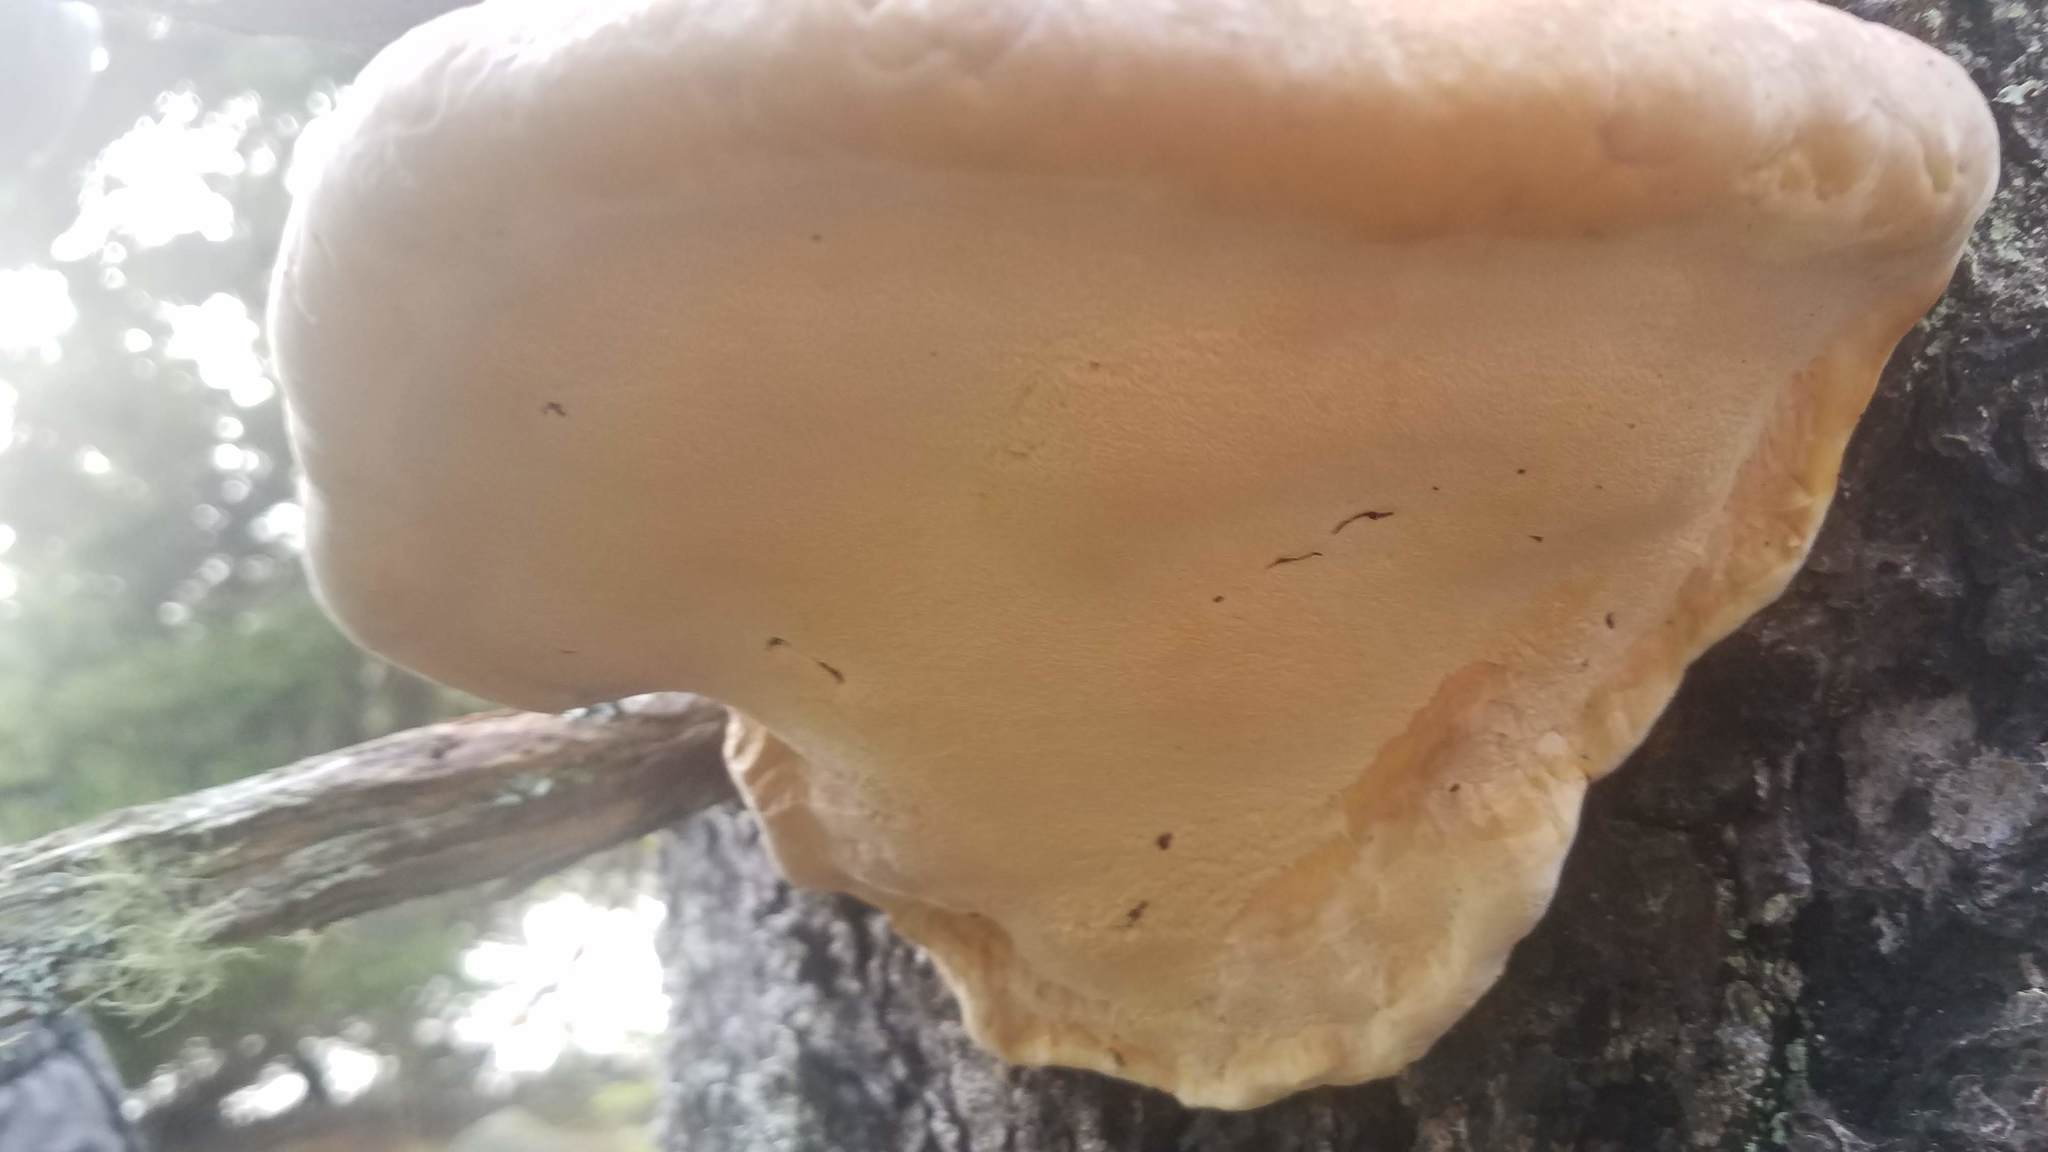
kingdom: Fungi
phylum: Basidiomycota
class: Agaricomycetes
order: Polyporales
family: Polyporaceae
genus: Ganoderma
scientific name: Ganoderma resinaceum
